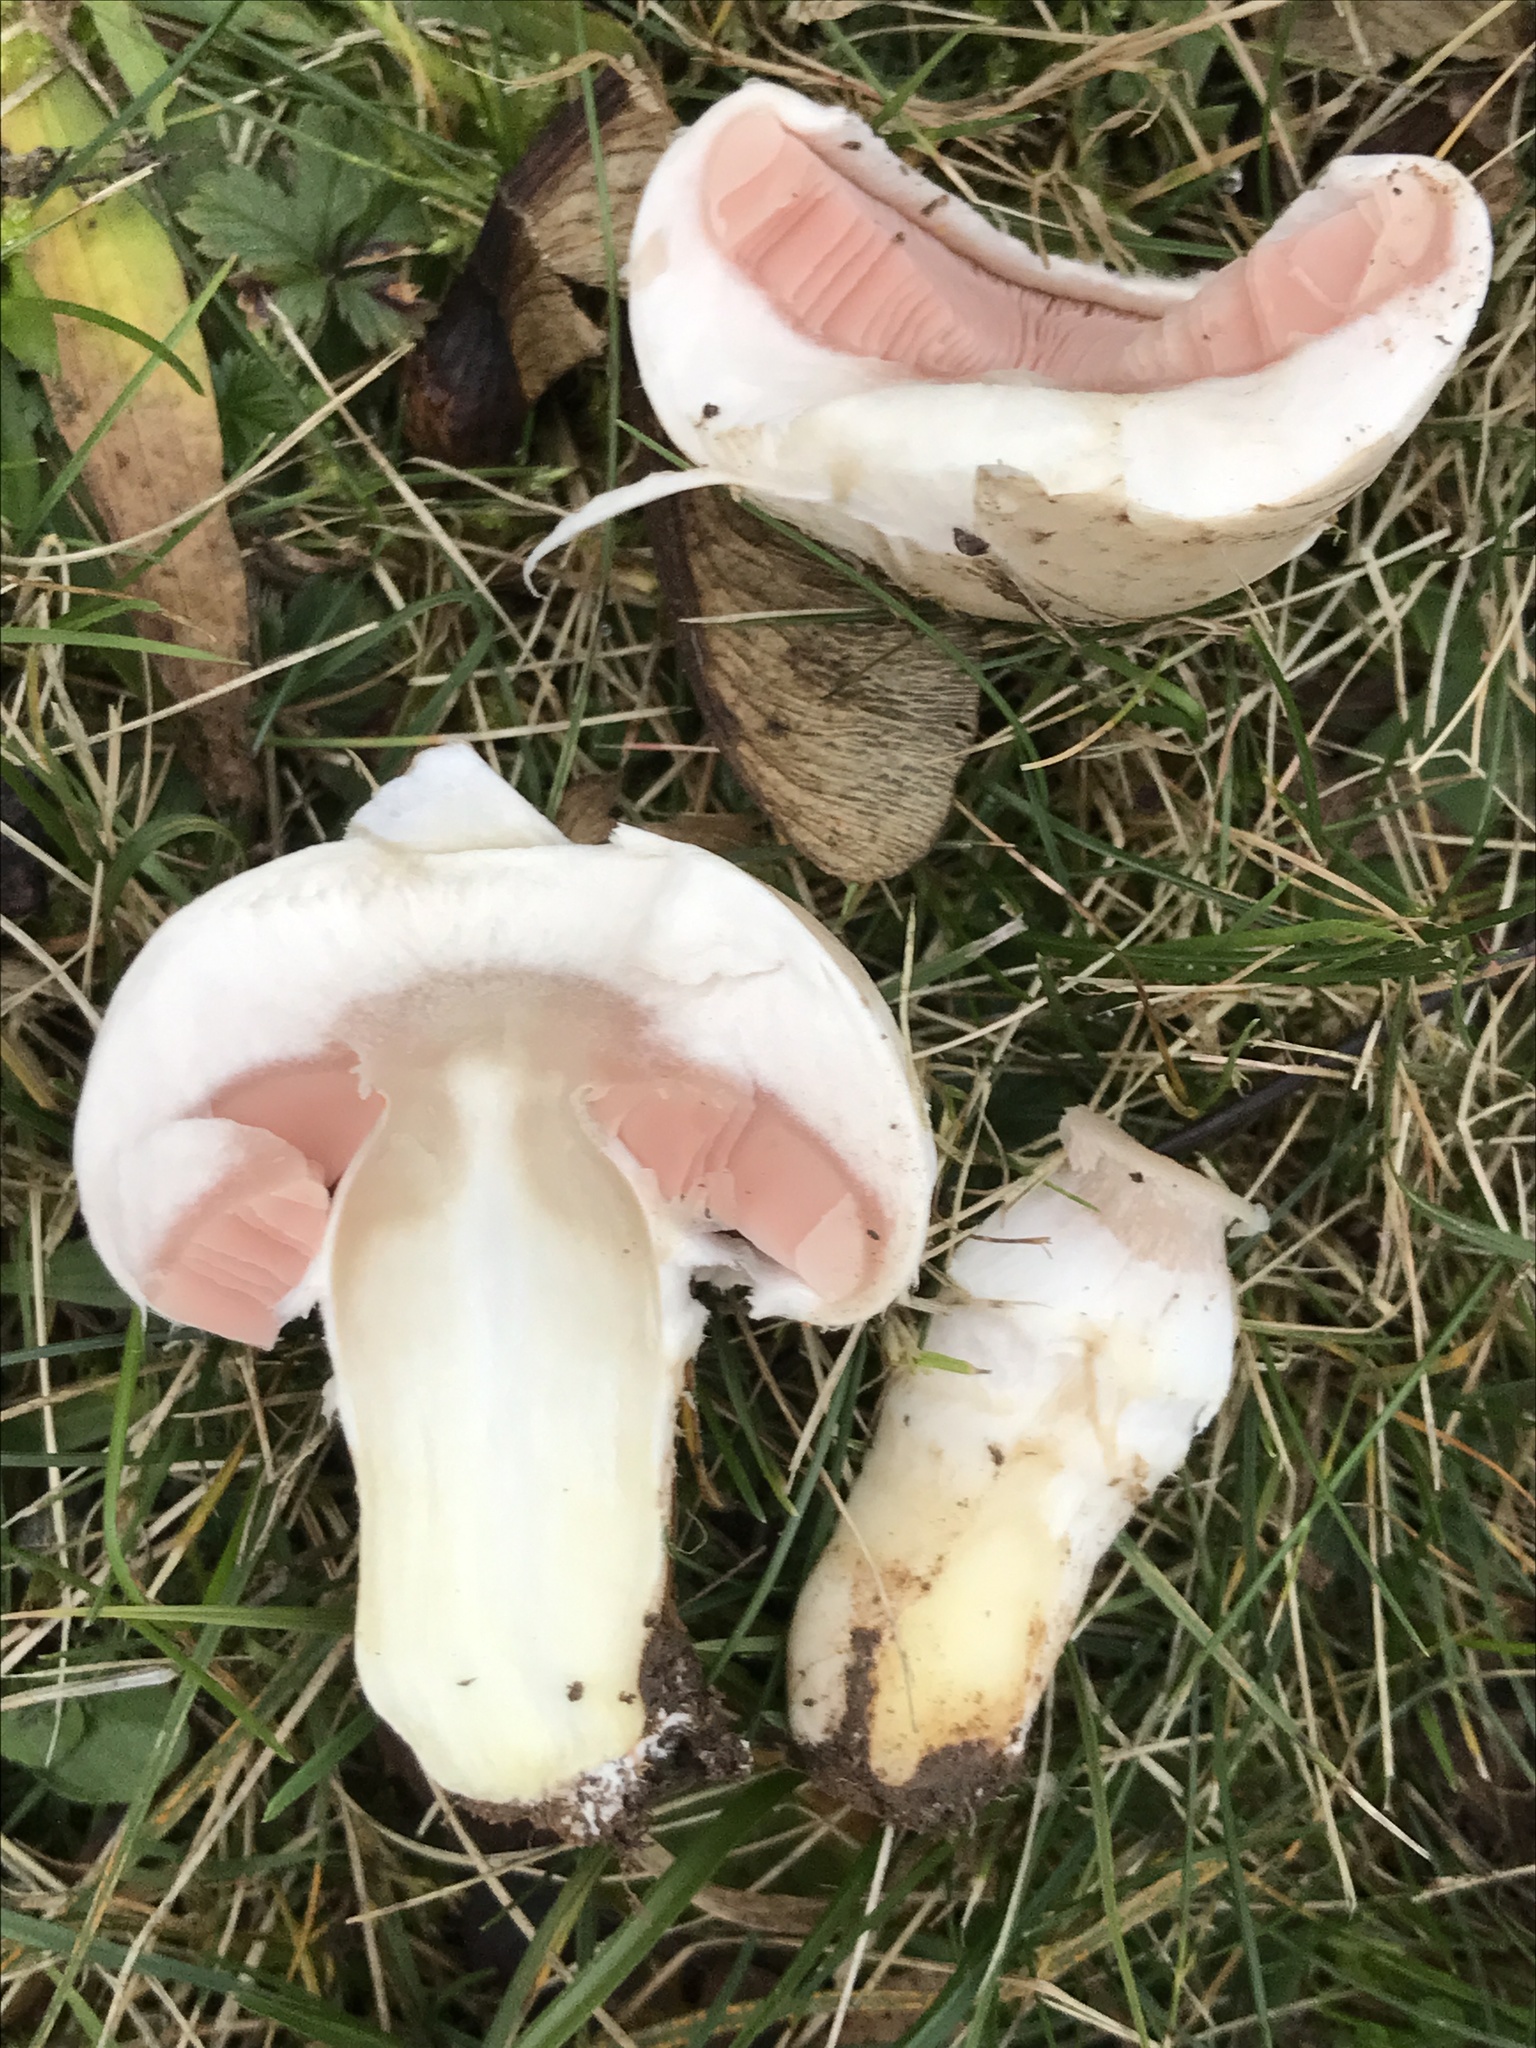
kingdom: Fungi
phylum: Basidiomycota
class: Agaricomycetes
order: Agaricales
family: Agaricaceae
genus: Agaricus
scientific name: Agaricus campestris
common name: Field mushroom
